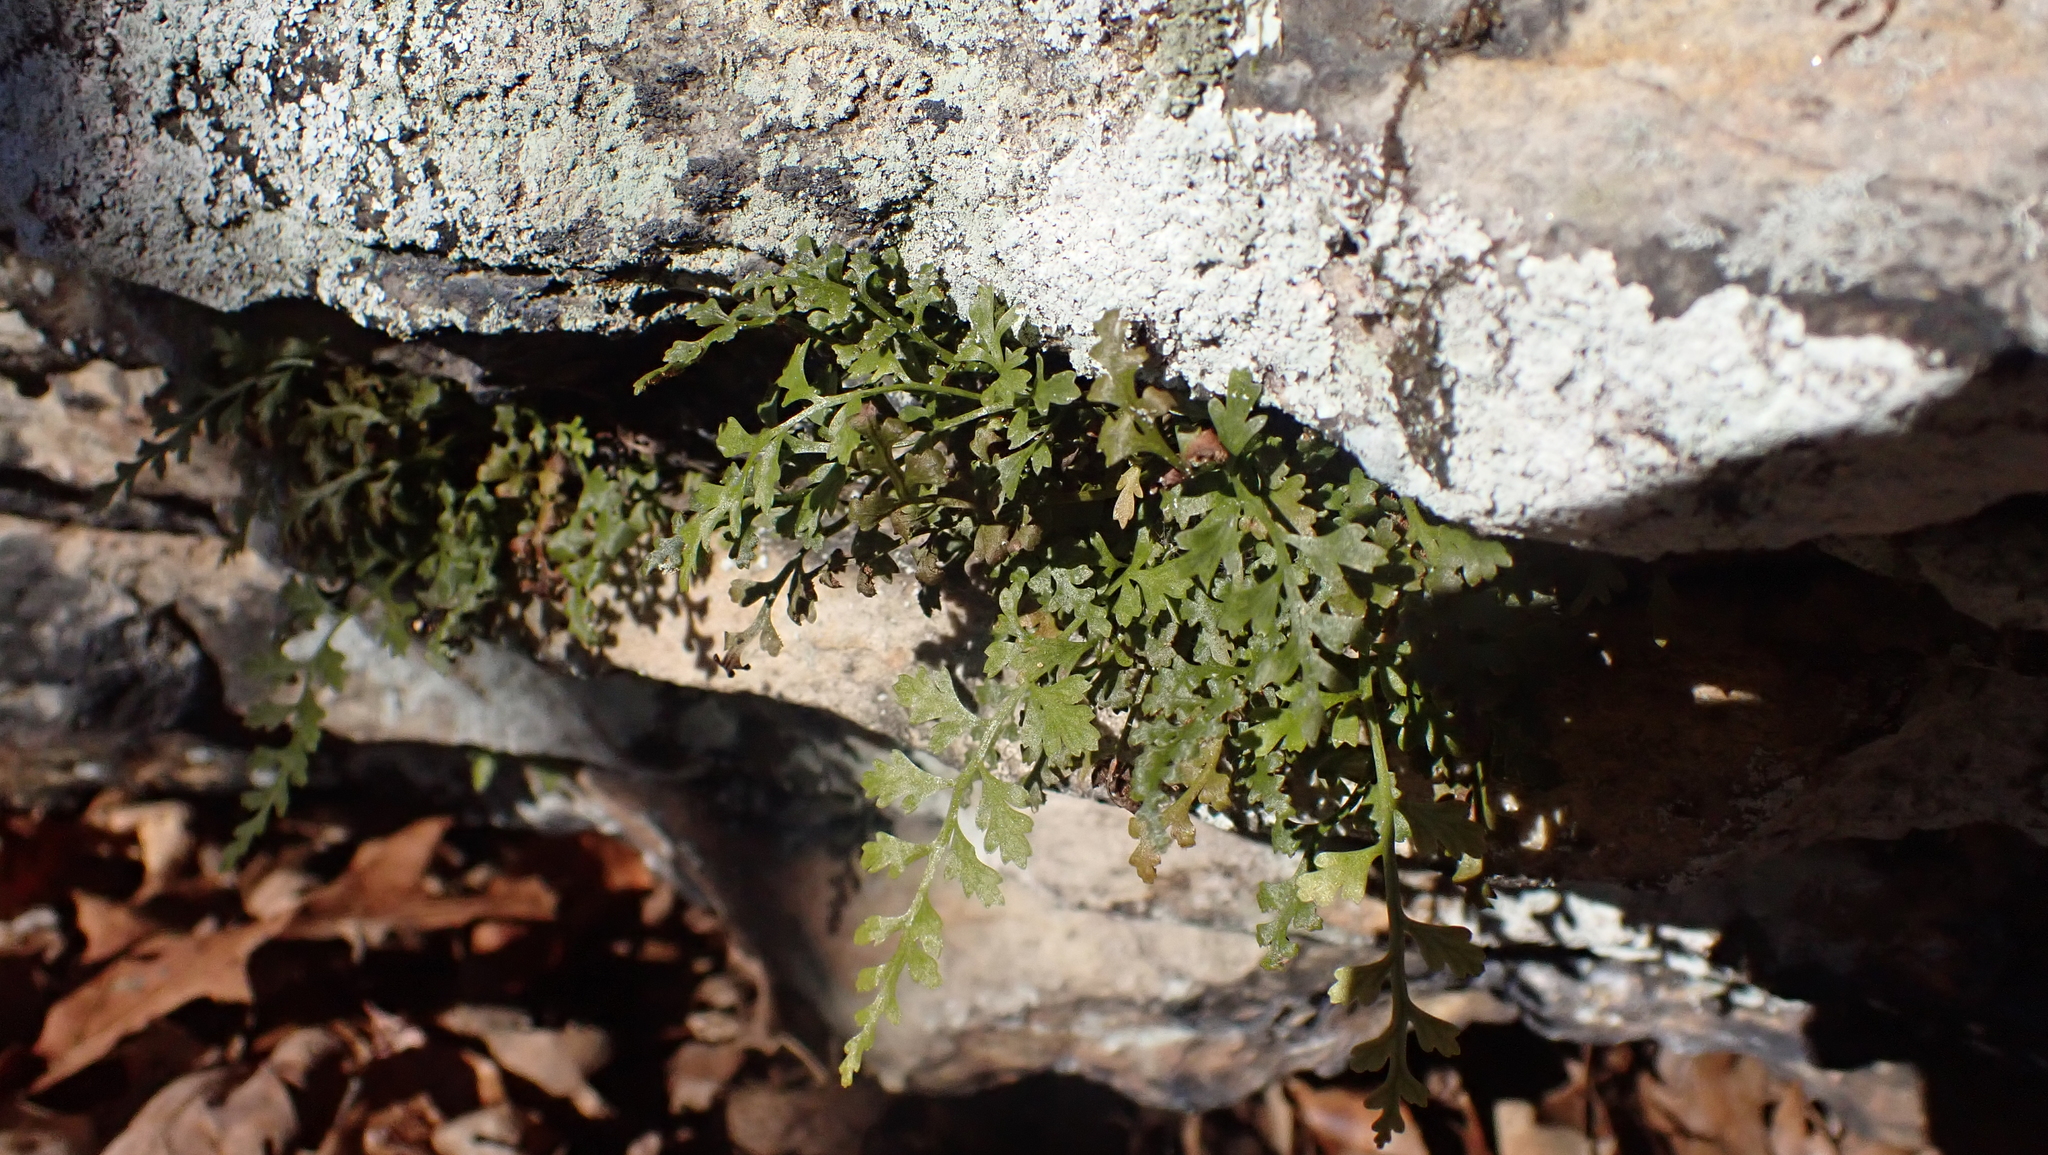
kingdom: Plantae
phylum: Tracheophyta
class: Polypodiopsida
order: Polypodiales
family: Aspleniaceae
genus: Asplenium
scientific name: Asplenium montanum
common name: Mountain spleenwort
